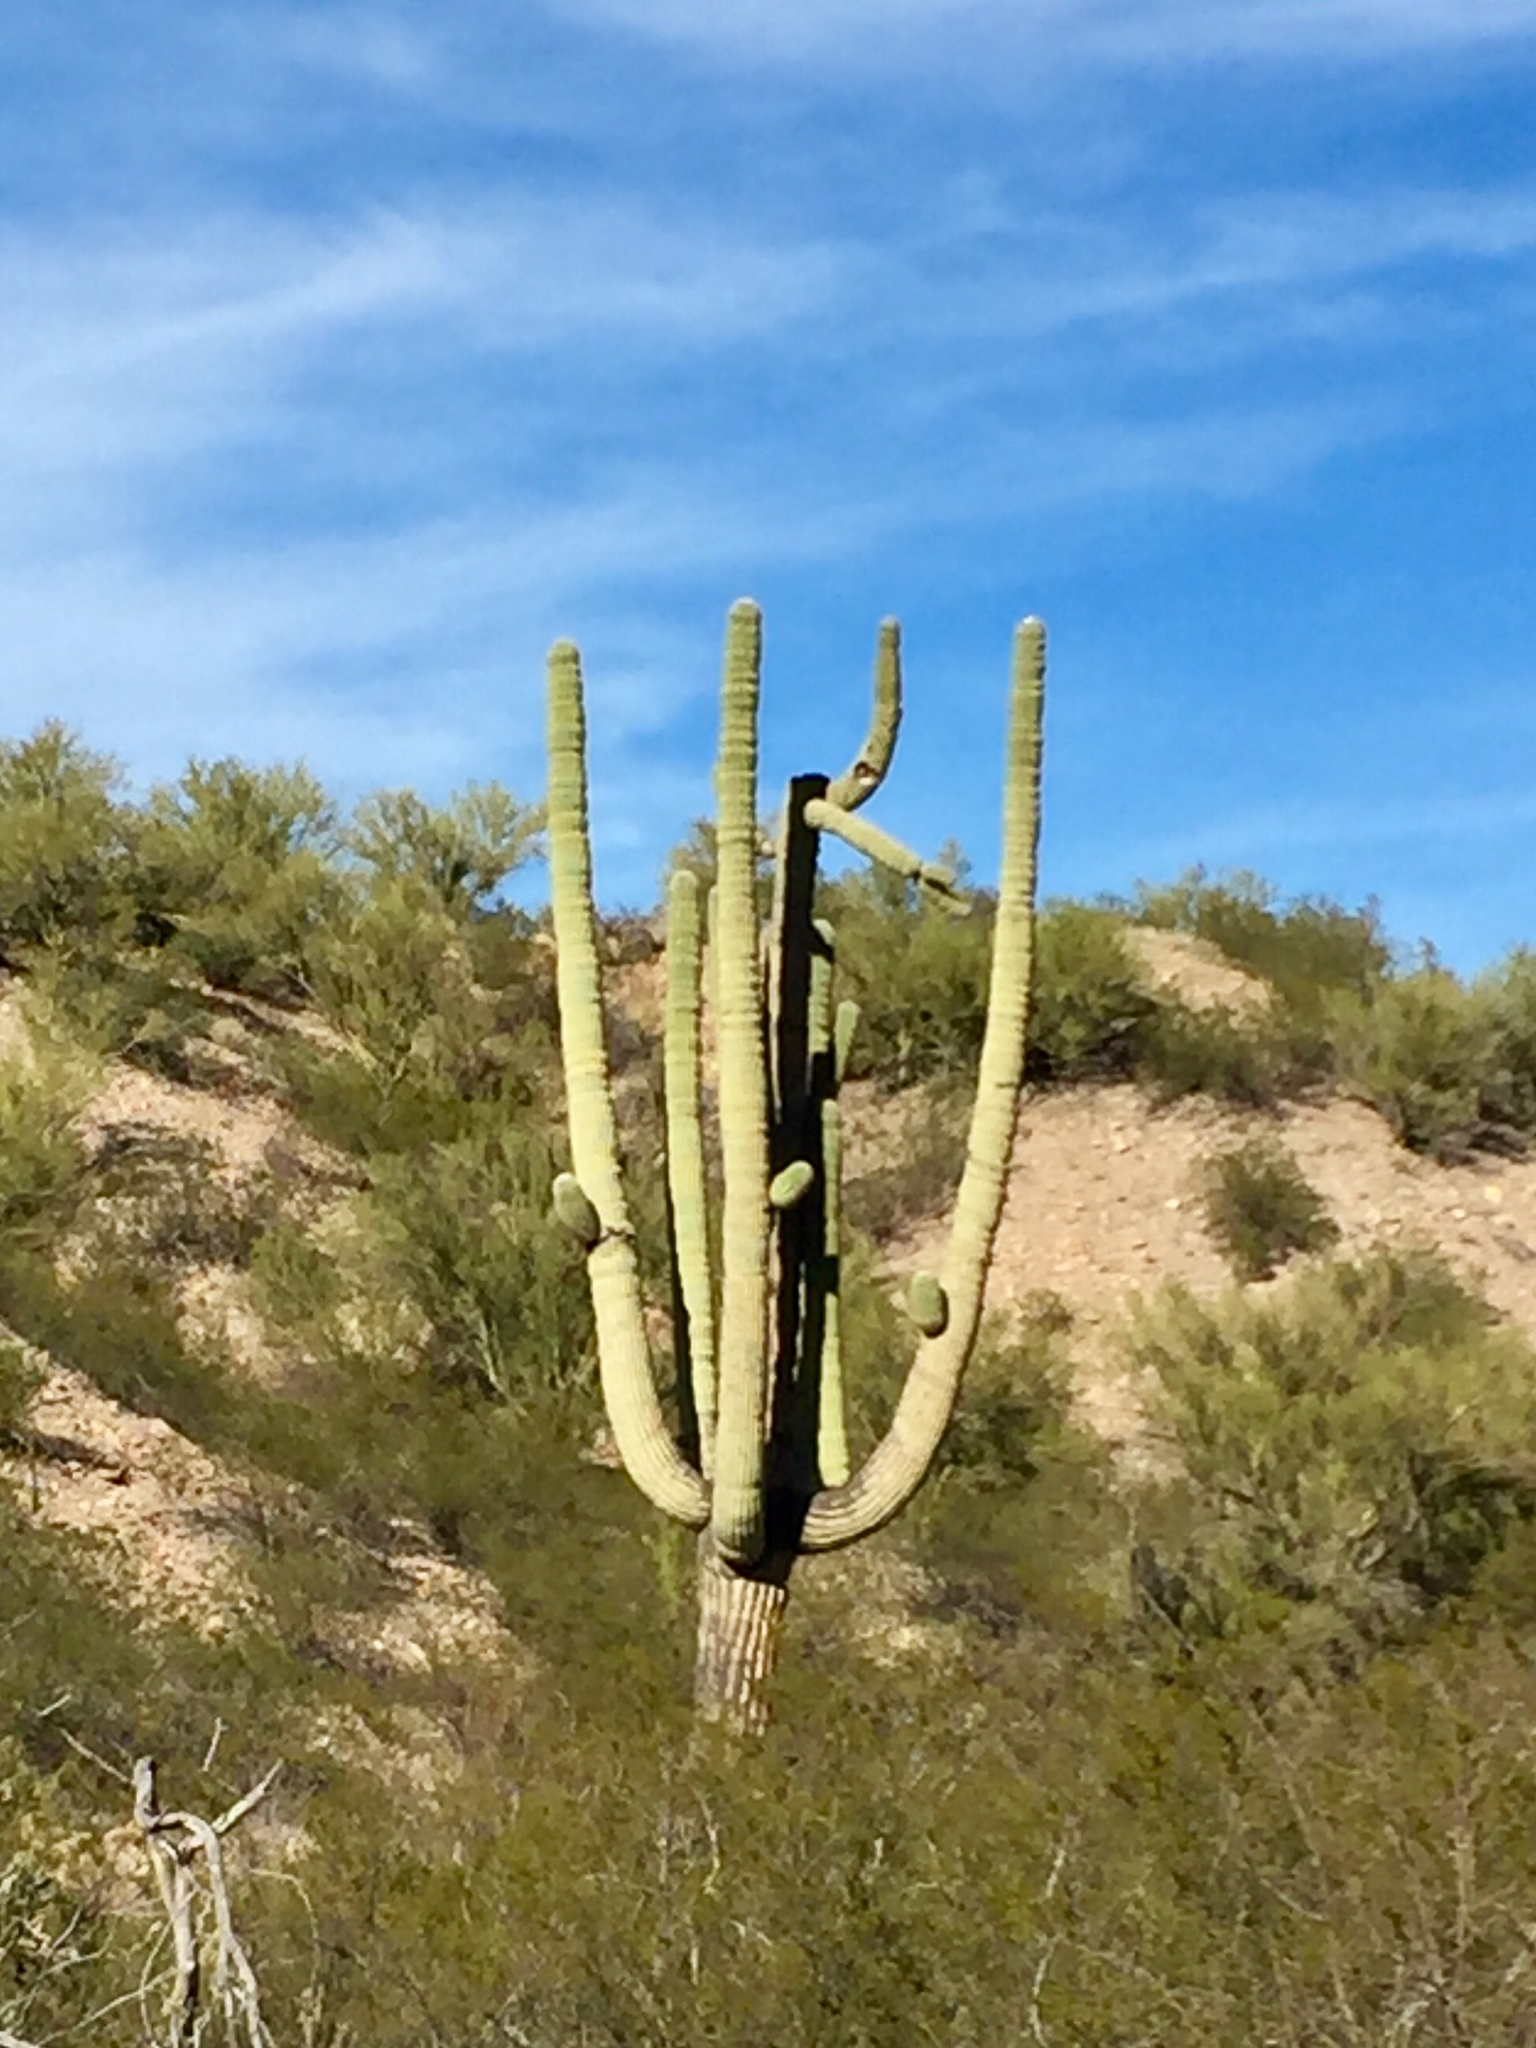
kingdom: Plantae
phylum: Tracheophyta
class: Magnoliopsida
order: Caryophyllales
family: Cactaceae
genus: Carnegiea
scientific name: Carnegiea gigantea
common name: Saguaro
